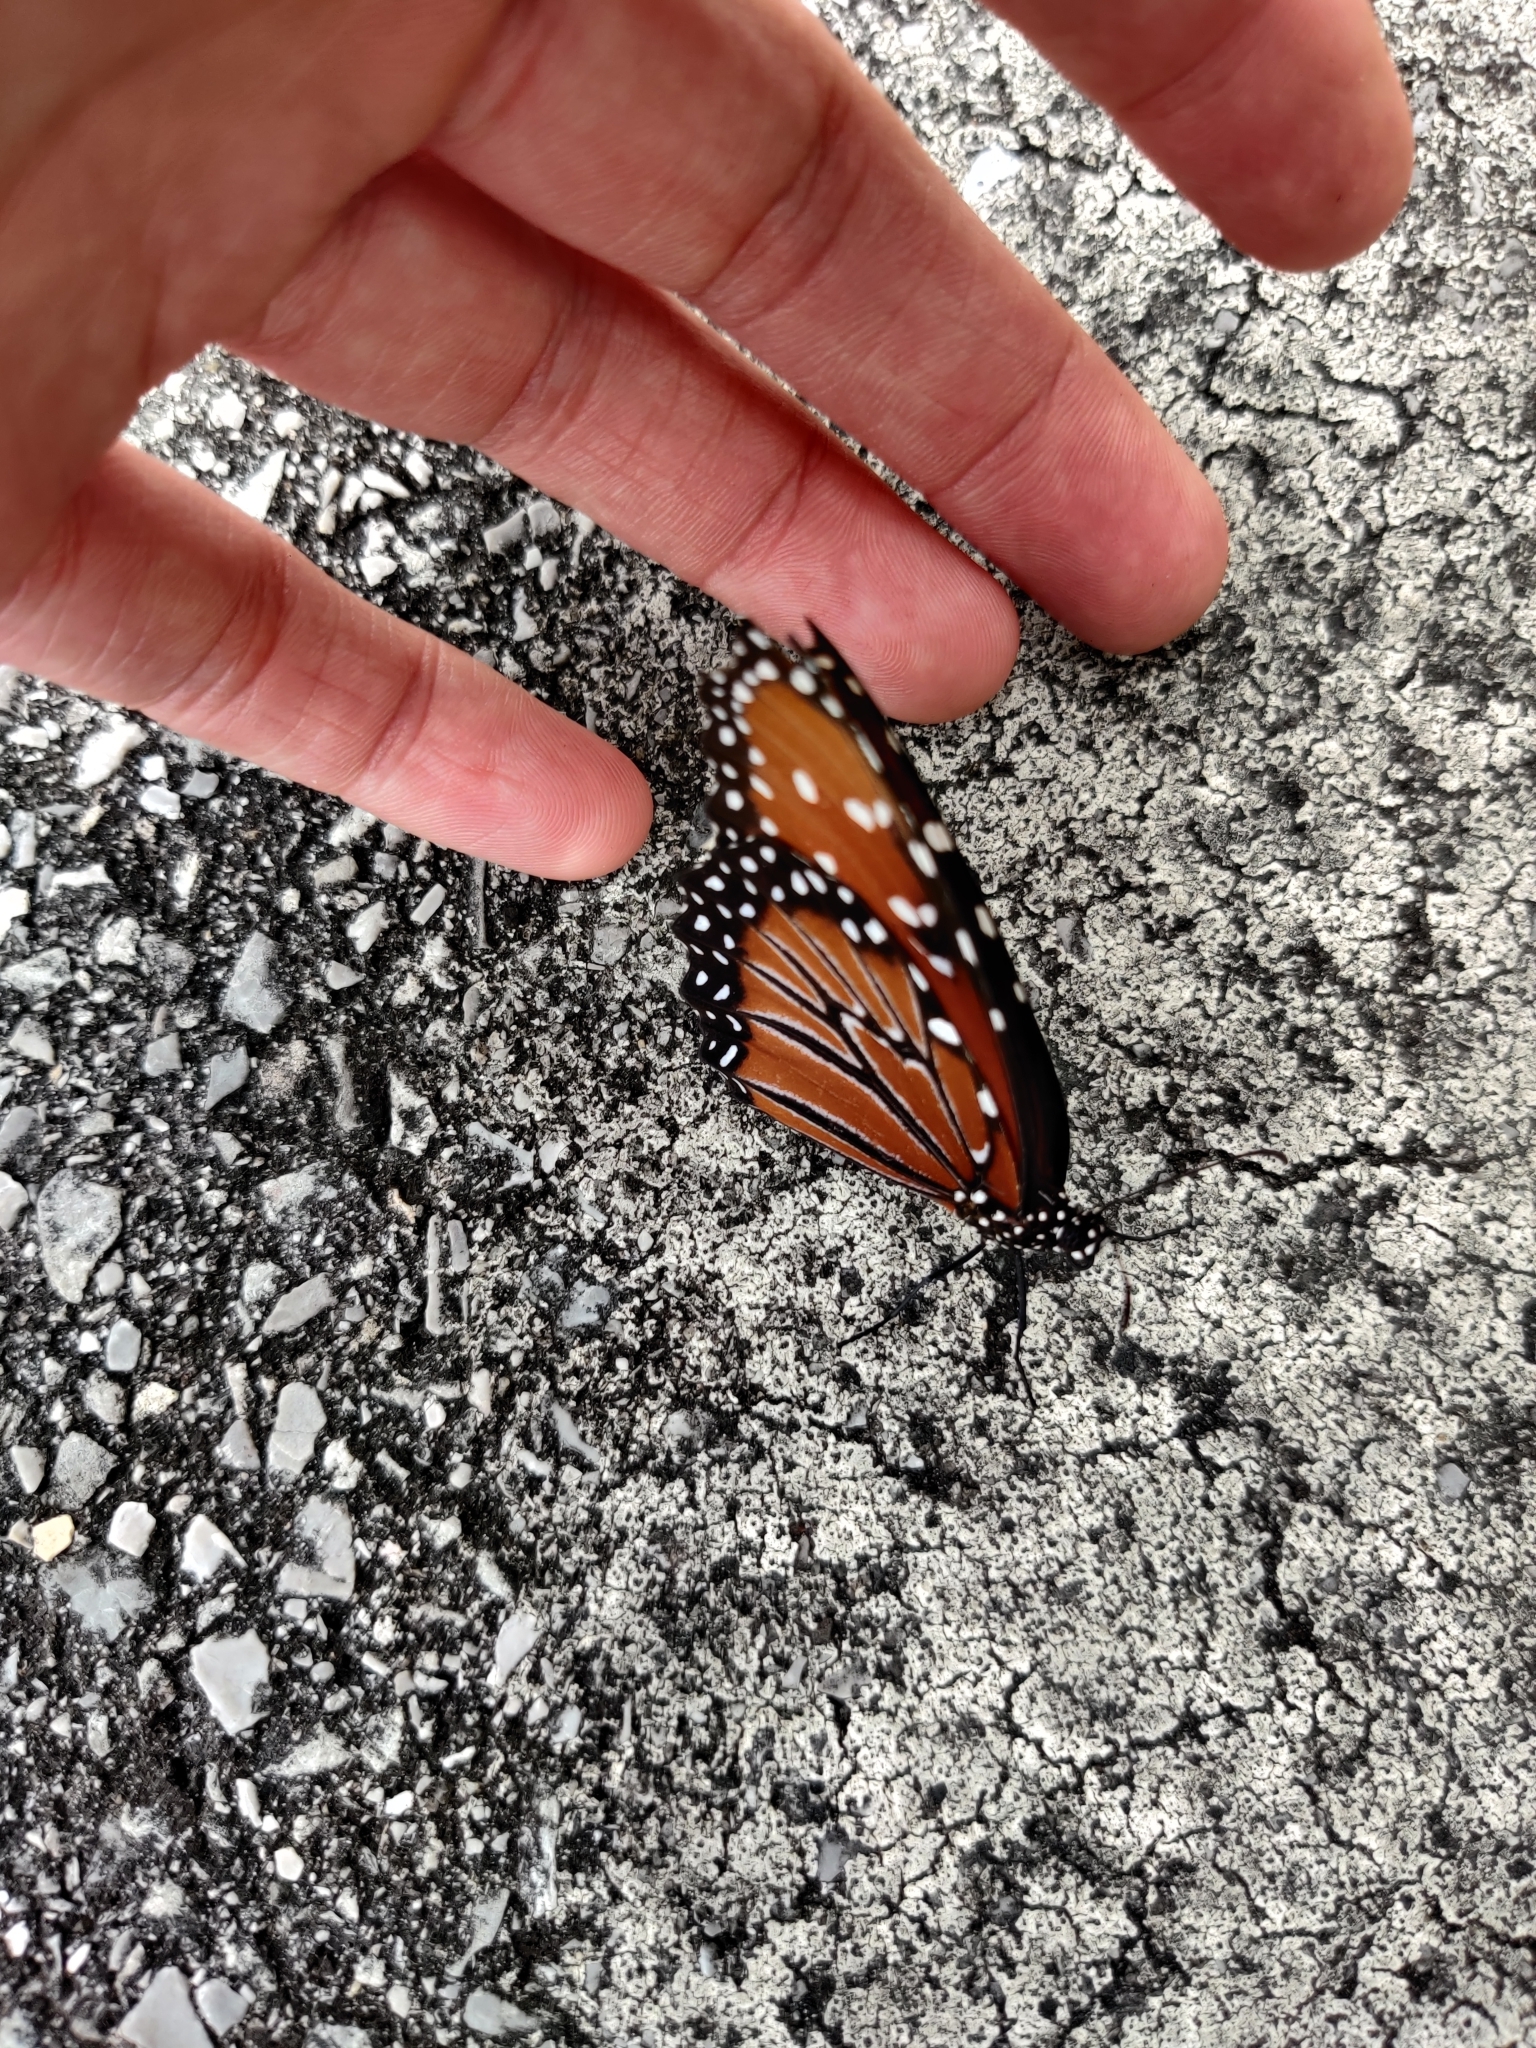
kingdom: Animalia
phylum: Arthropoda
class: Insecta
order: Lepidoptera
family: Nymphalidae
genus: Danaus
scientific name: Danaus gilippus
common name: Queen
